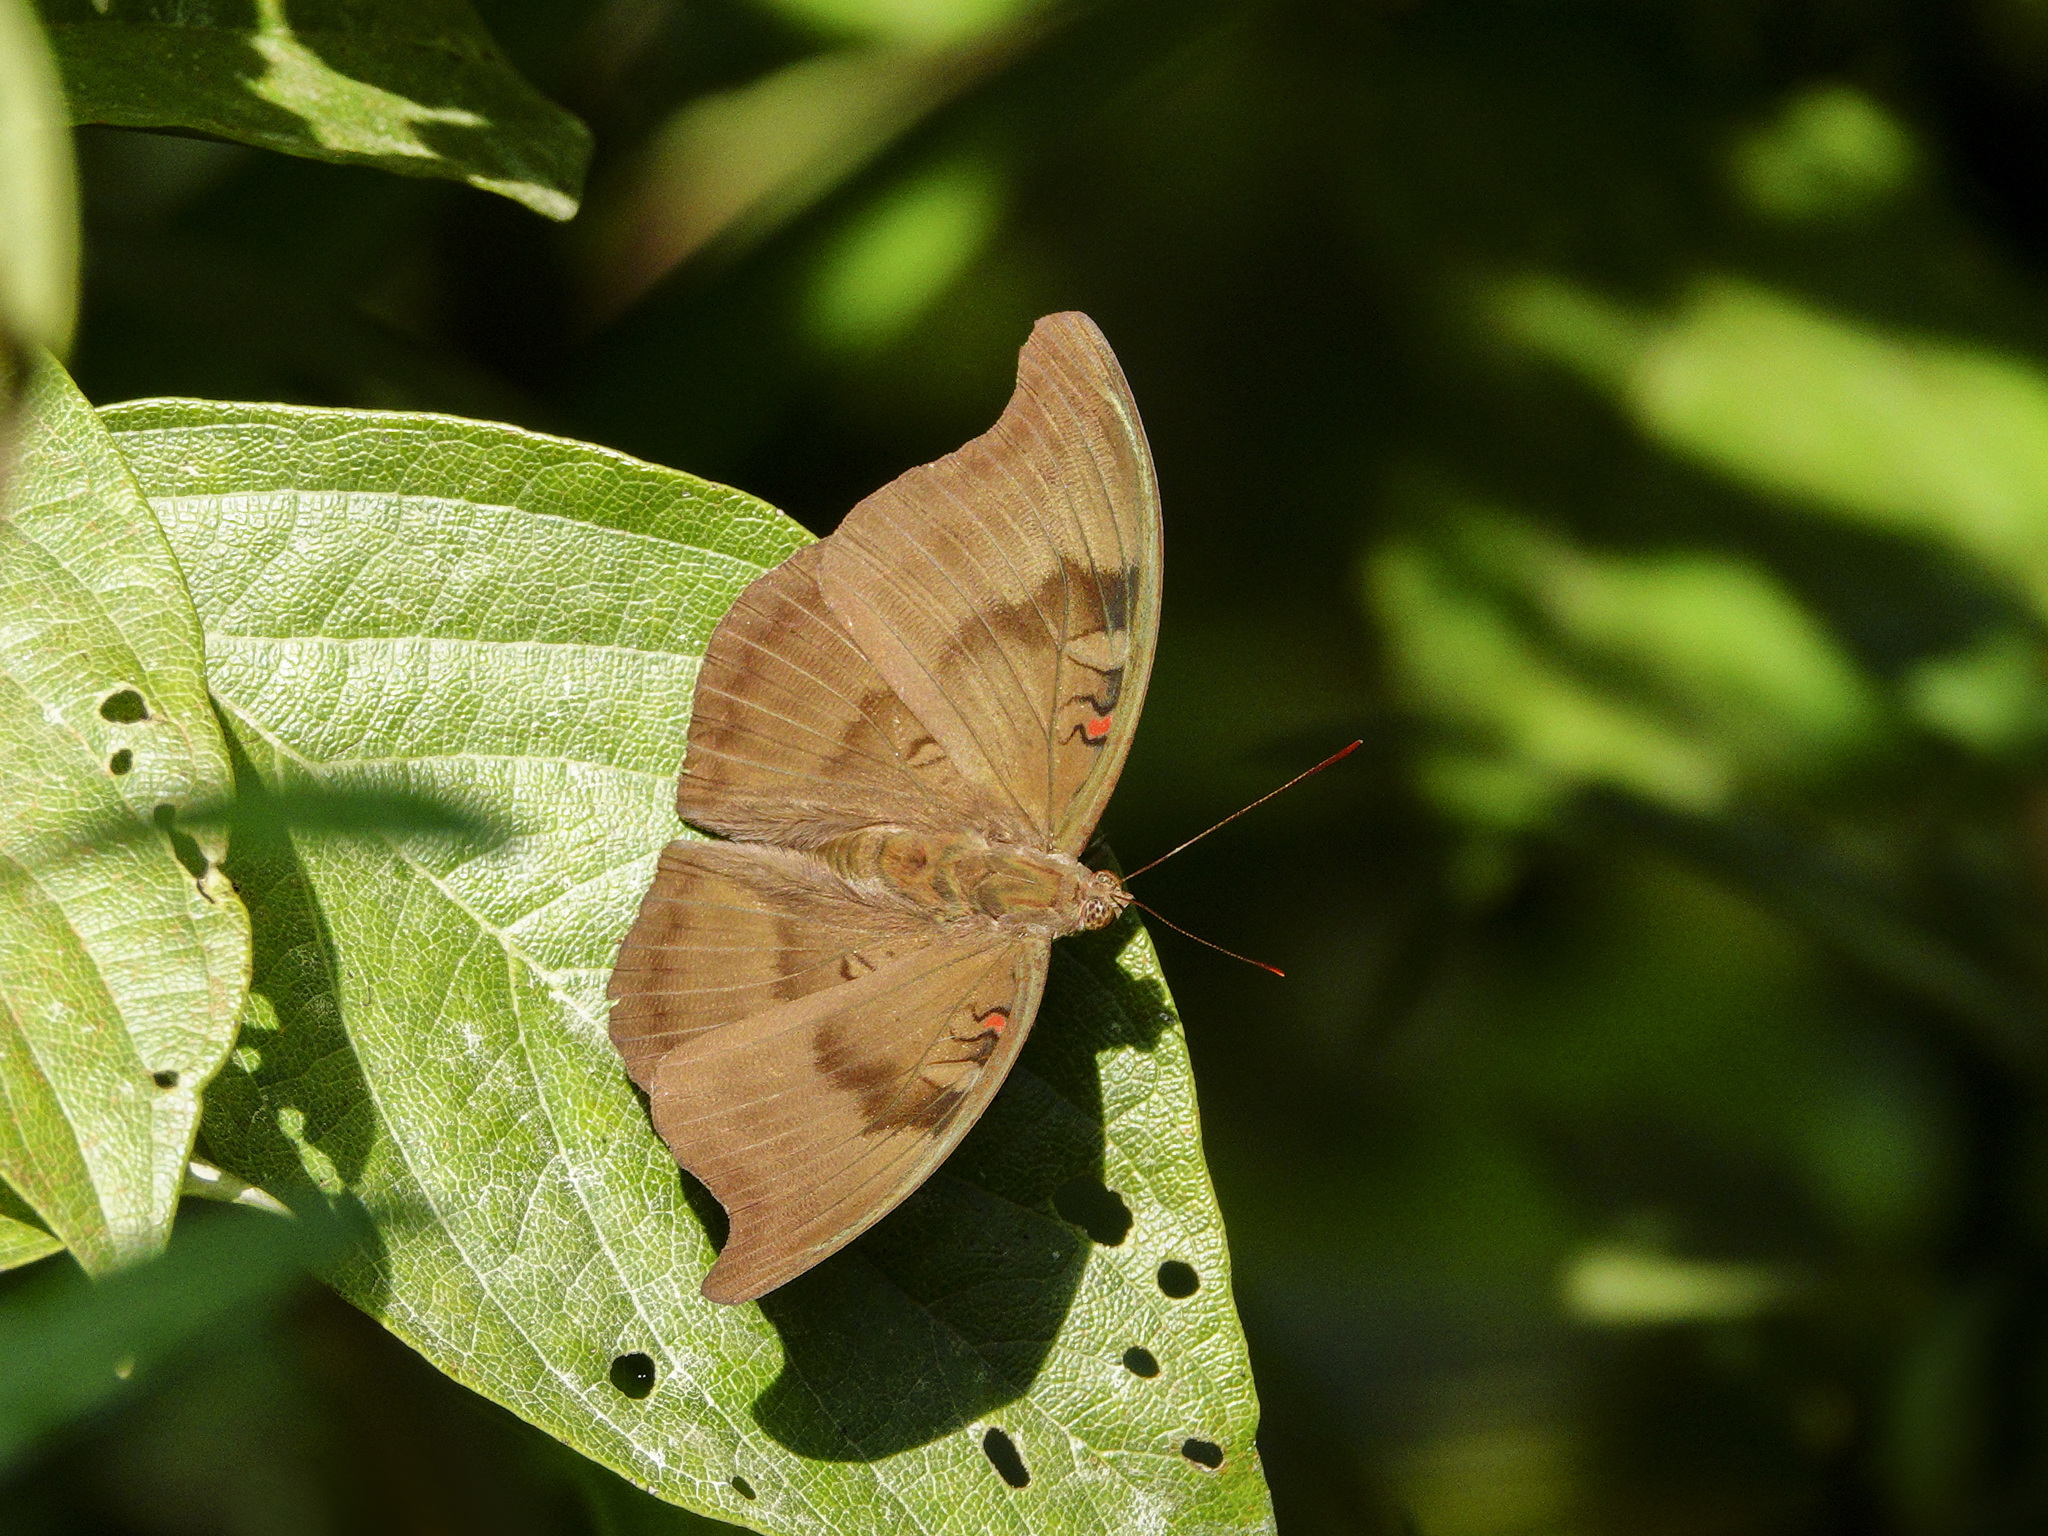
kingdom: Animalia
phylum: Arthropoda
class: Insecta
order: Lepidoptera
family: Nymphalidae
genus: Euthalia
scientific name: Euthalia Dophla evelina
